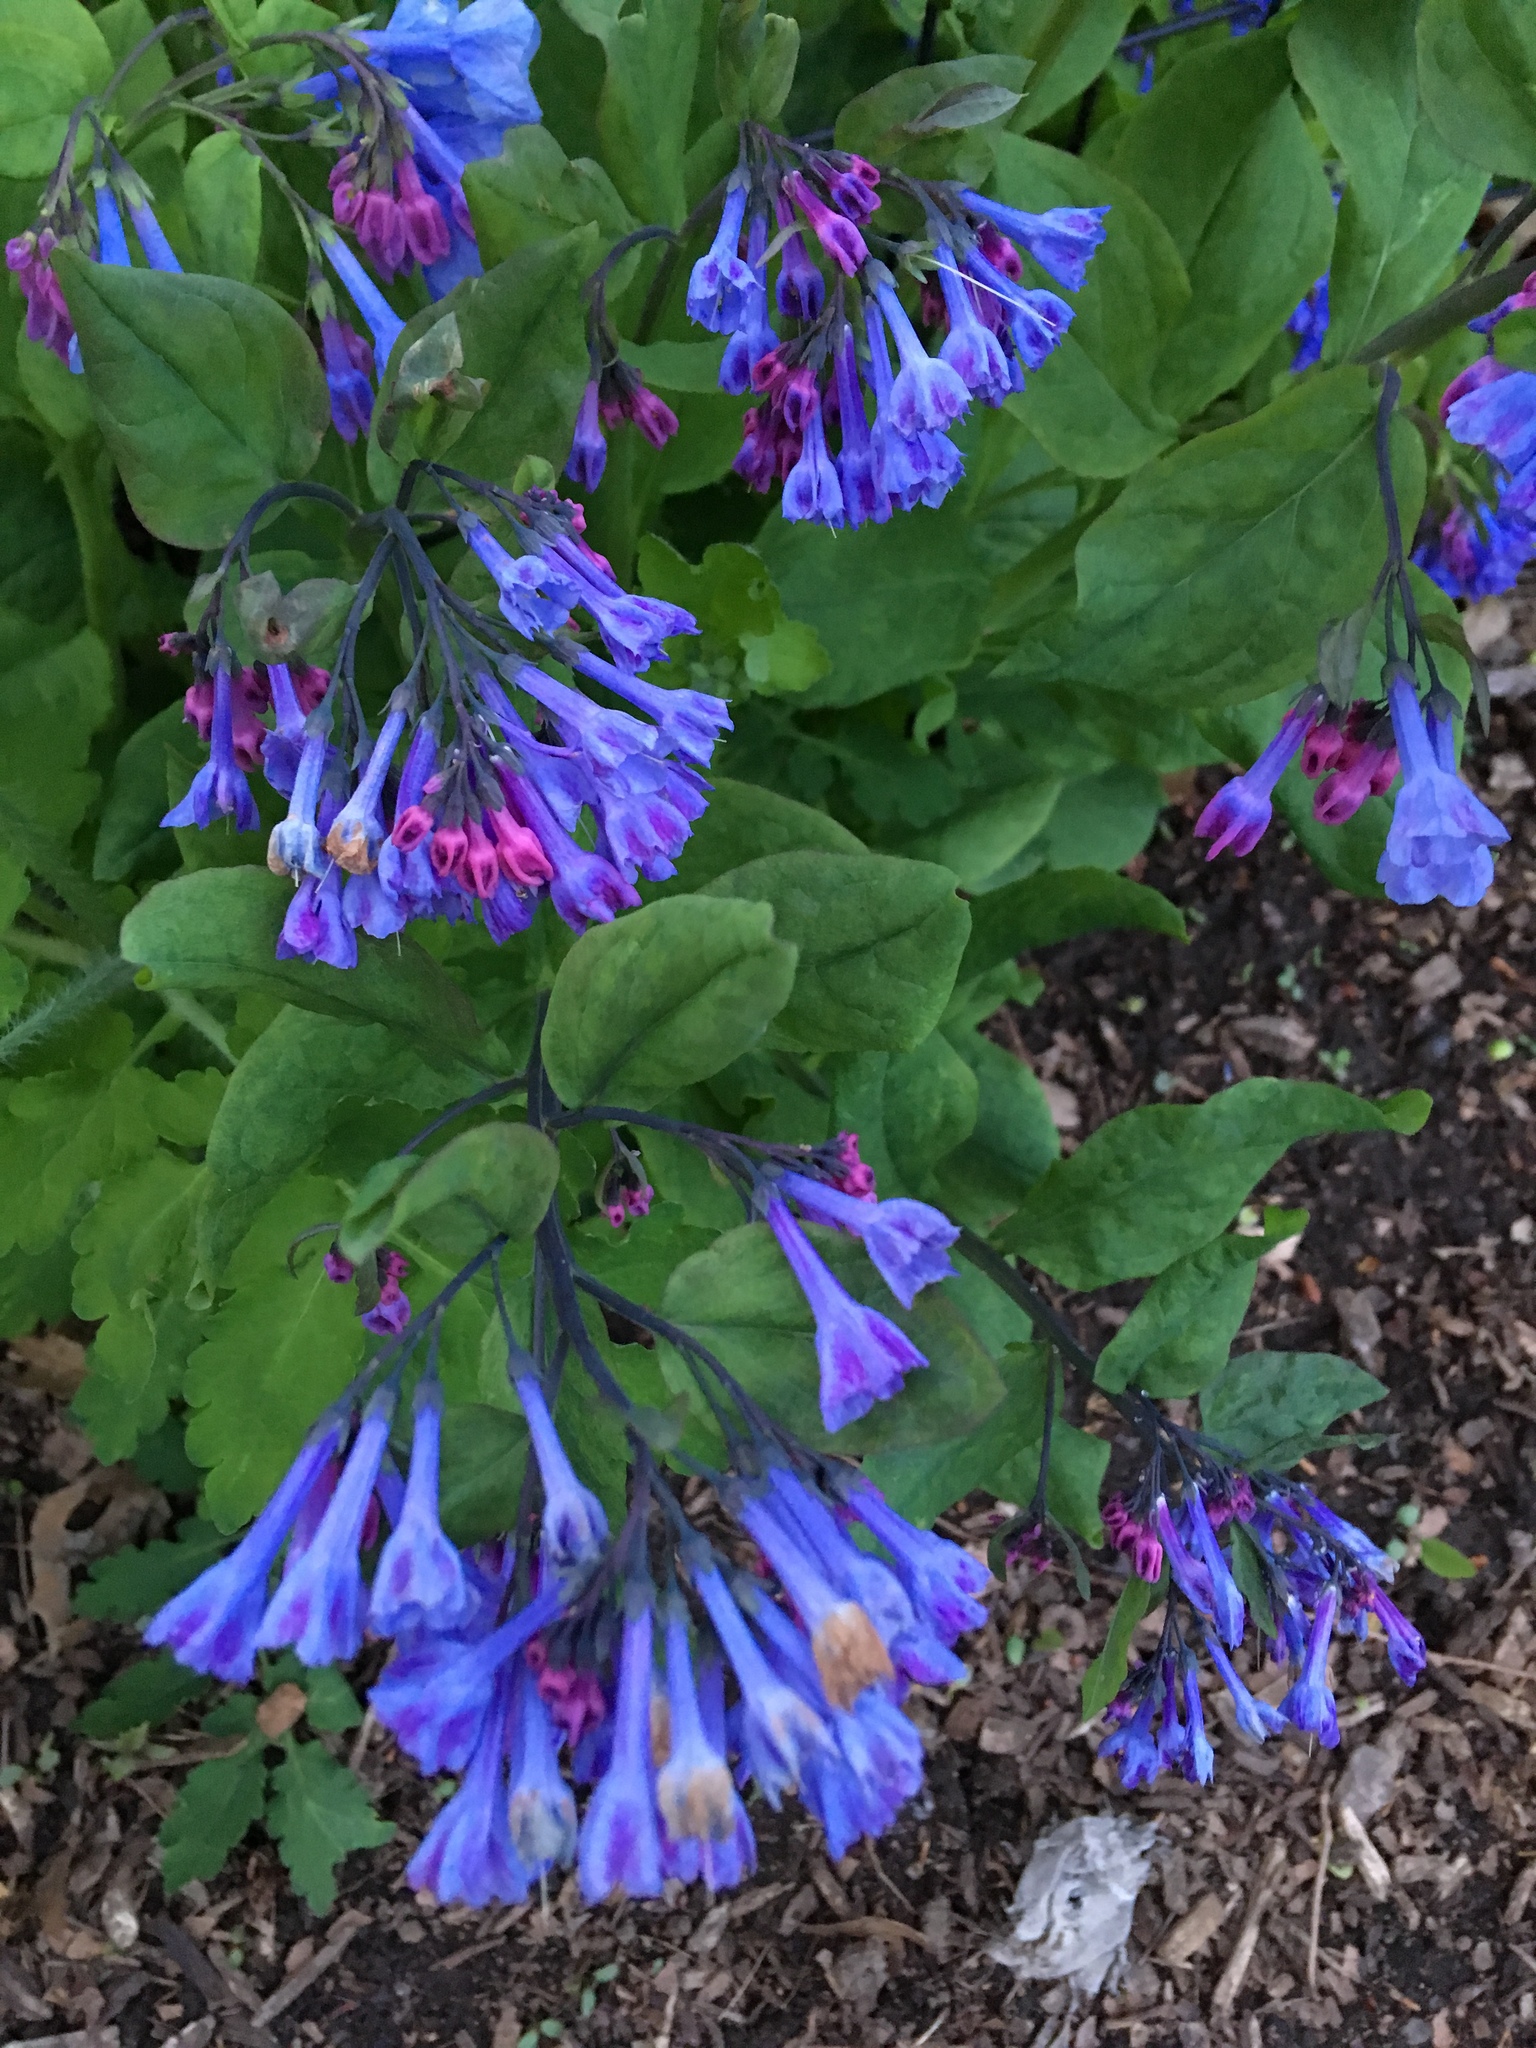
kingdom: Plantae
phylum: Tracheophyta
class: Magnoliopsida
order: Boraginales
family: Boraginaceae
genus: Mertensia
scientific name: Mertensia virginica
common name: Virginia bluebells
